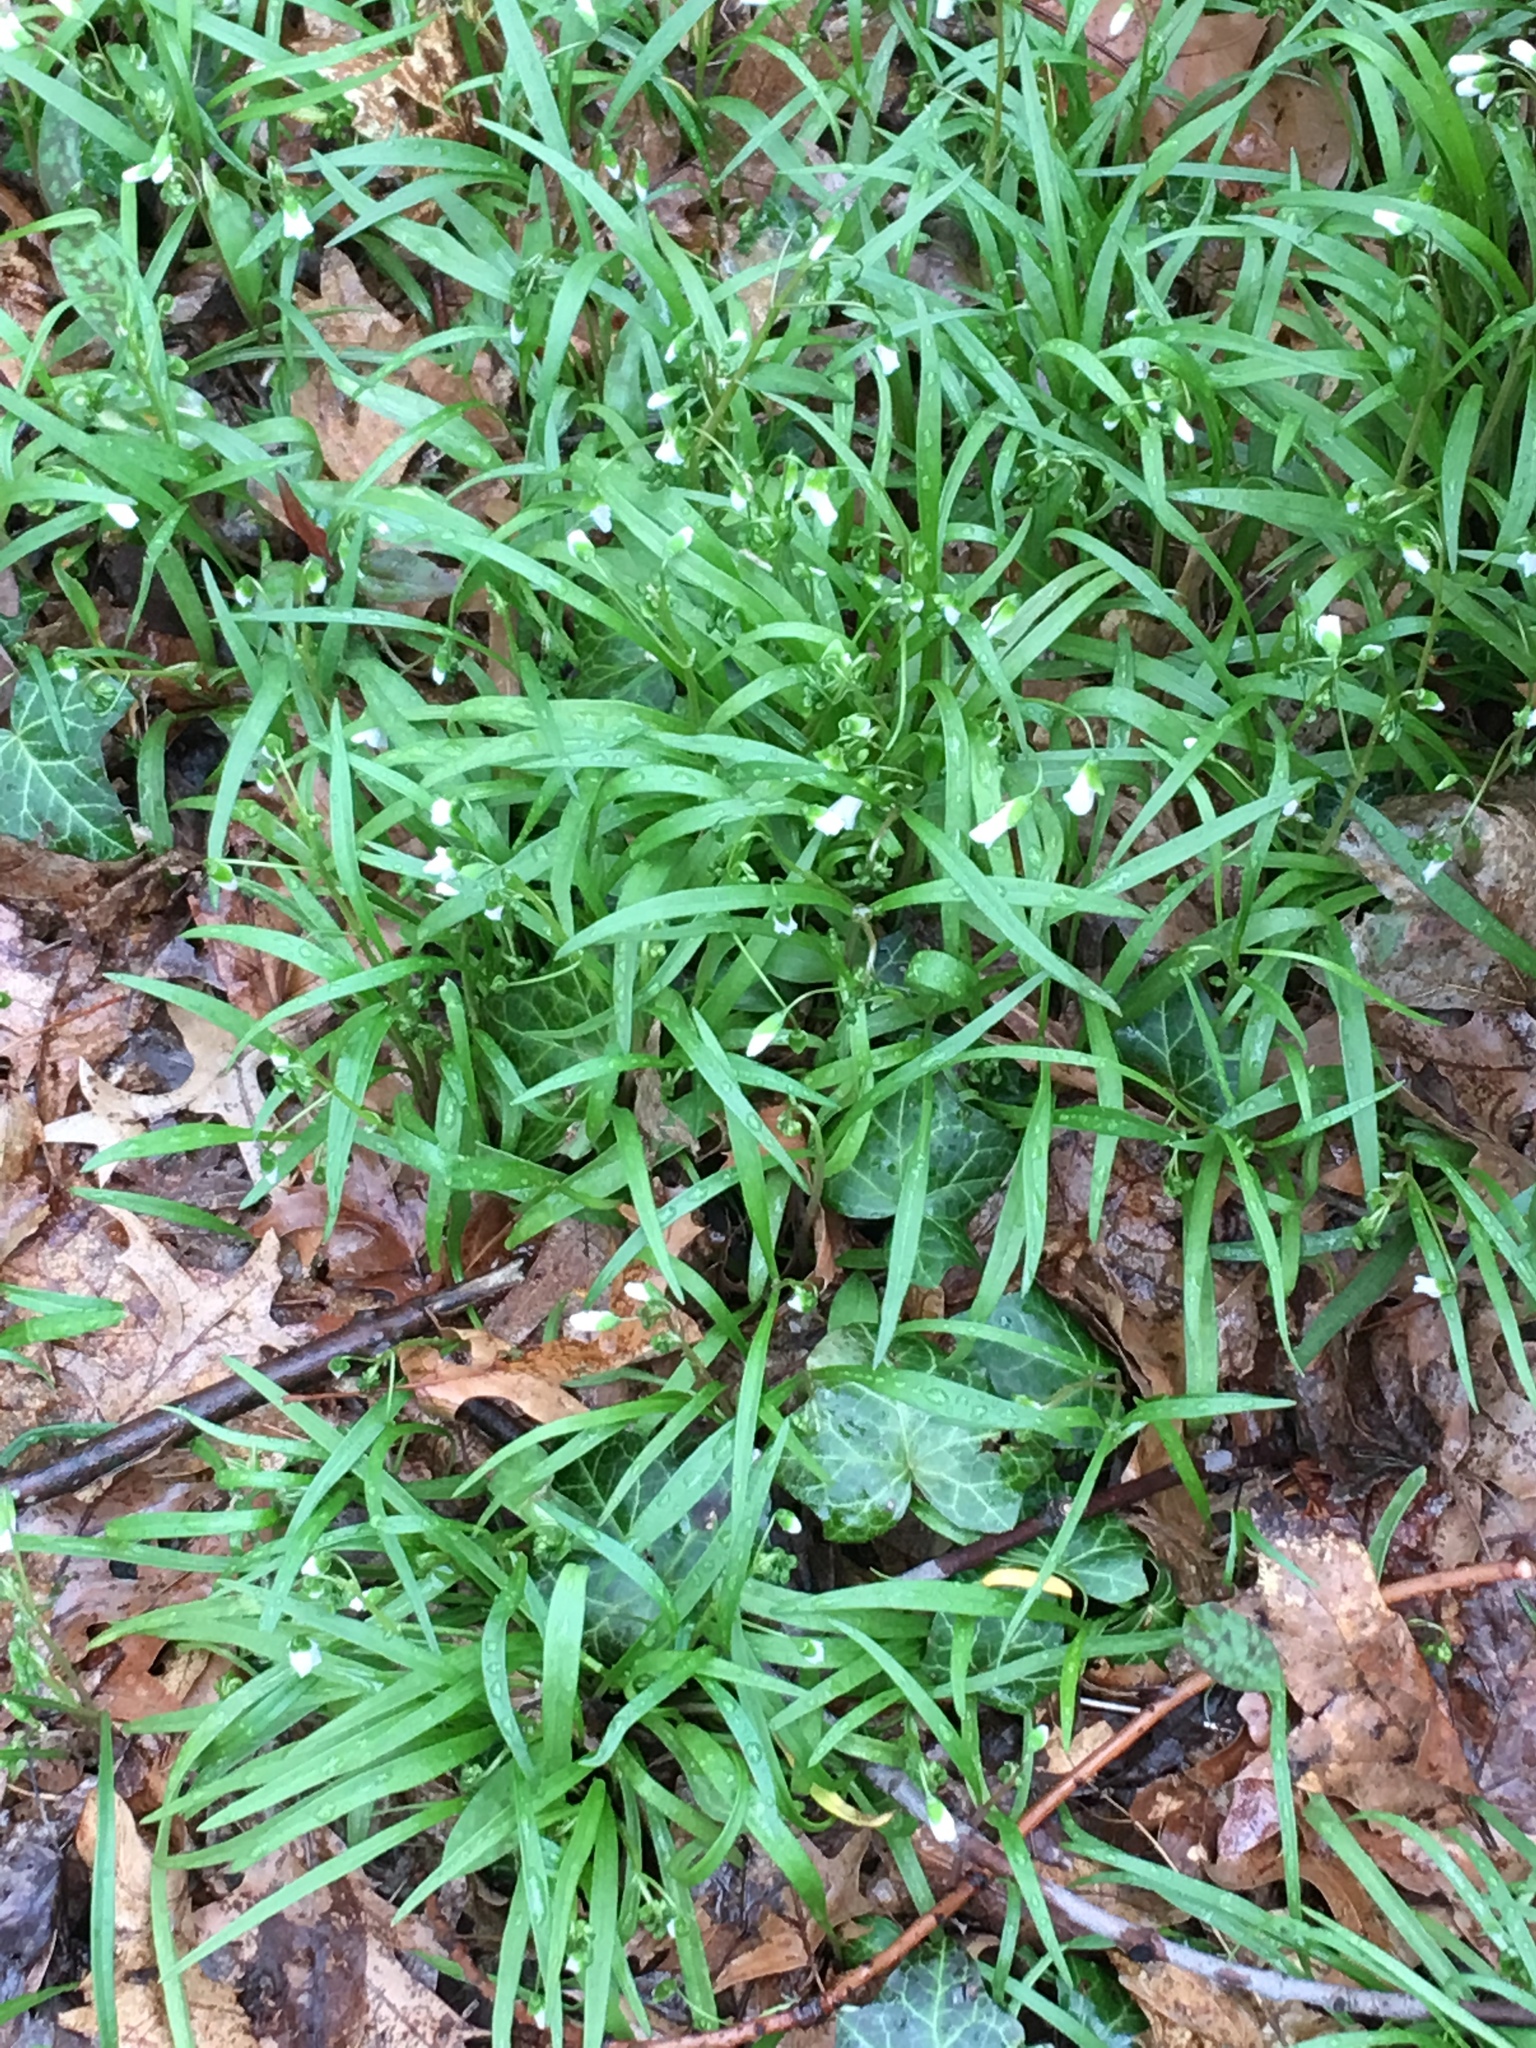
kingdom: Plantae
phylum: Tracheophyta
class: Magnoliopsida
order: Caryophyllales
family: Montiaceae
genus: Claytonia
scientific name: Claytonia virginica
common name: Virginia springbeauty
